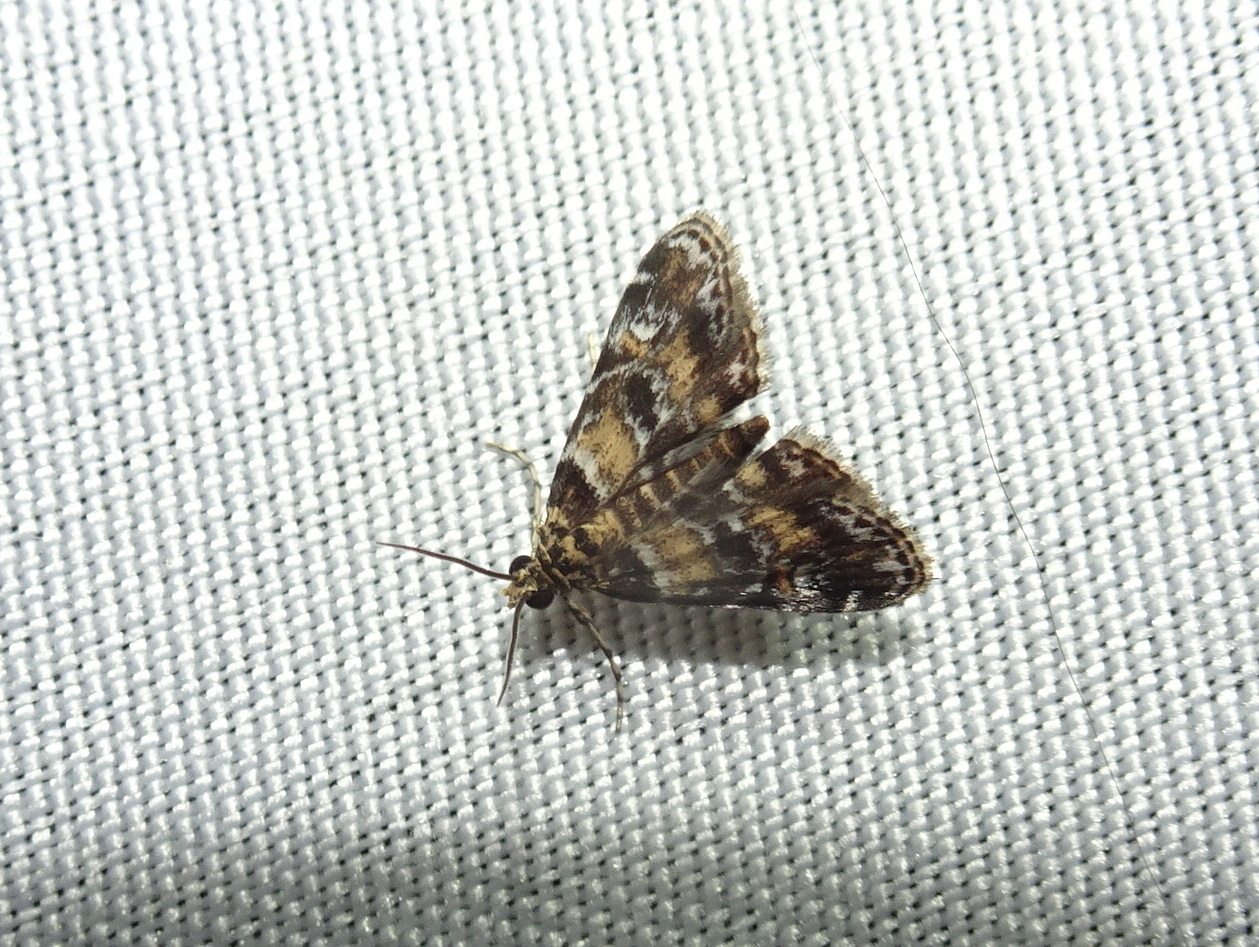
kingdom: Animalia
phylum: Arthropoda
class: Insecta
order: Lepidoptera
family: Crambidae
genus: Elophila
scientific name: Elophila obliteralis
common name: Waterlily leafcutter moth
